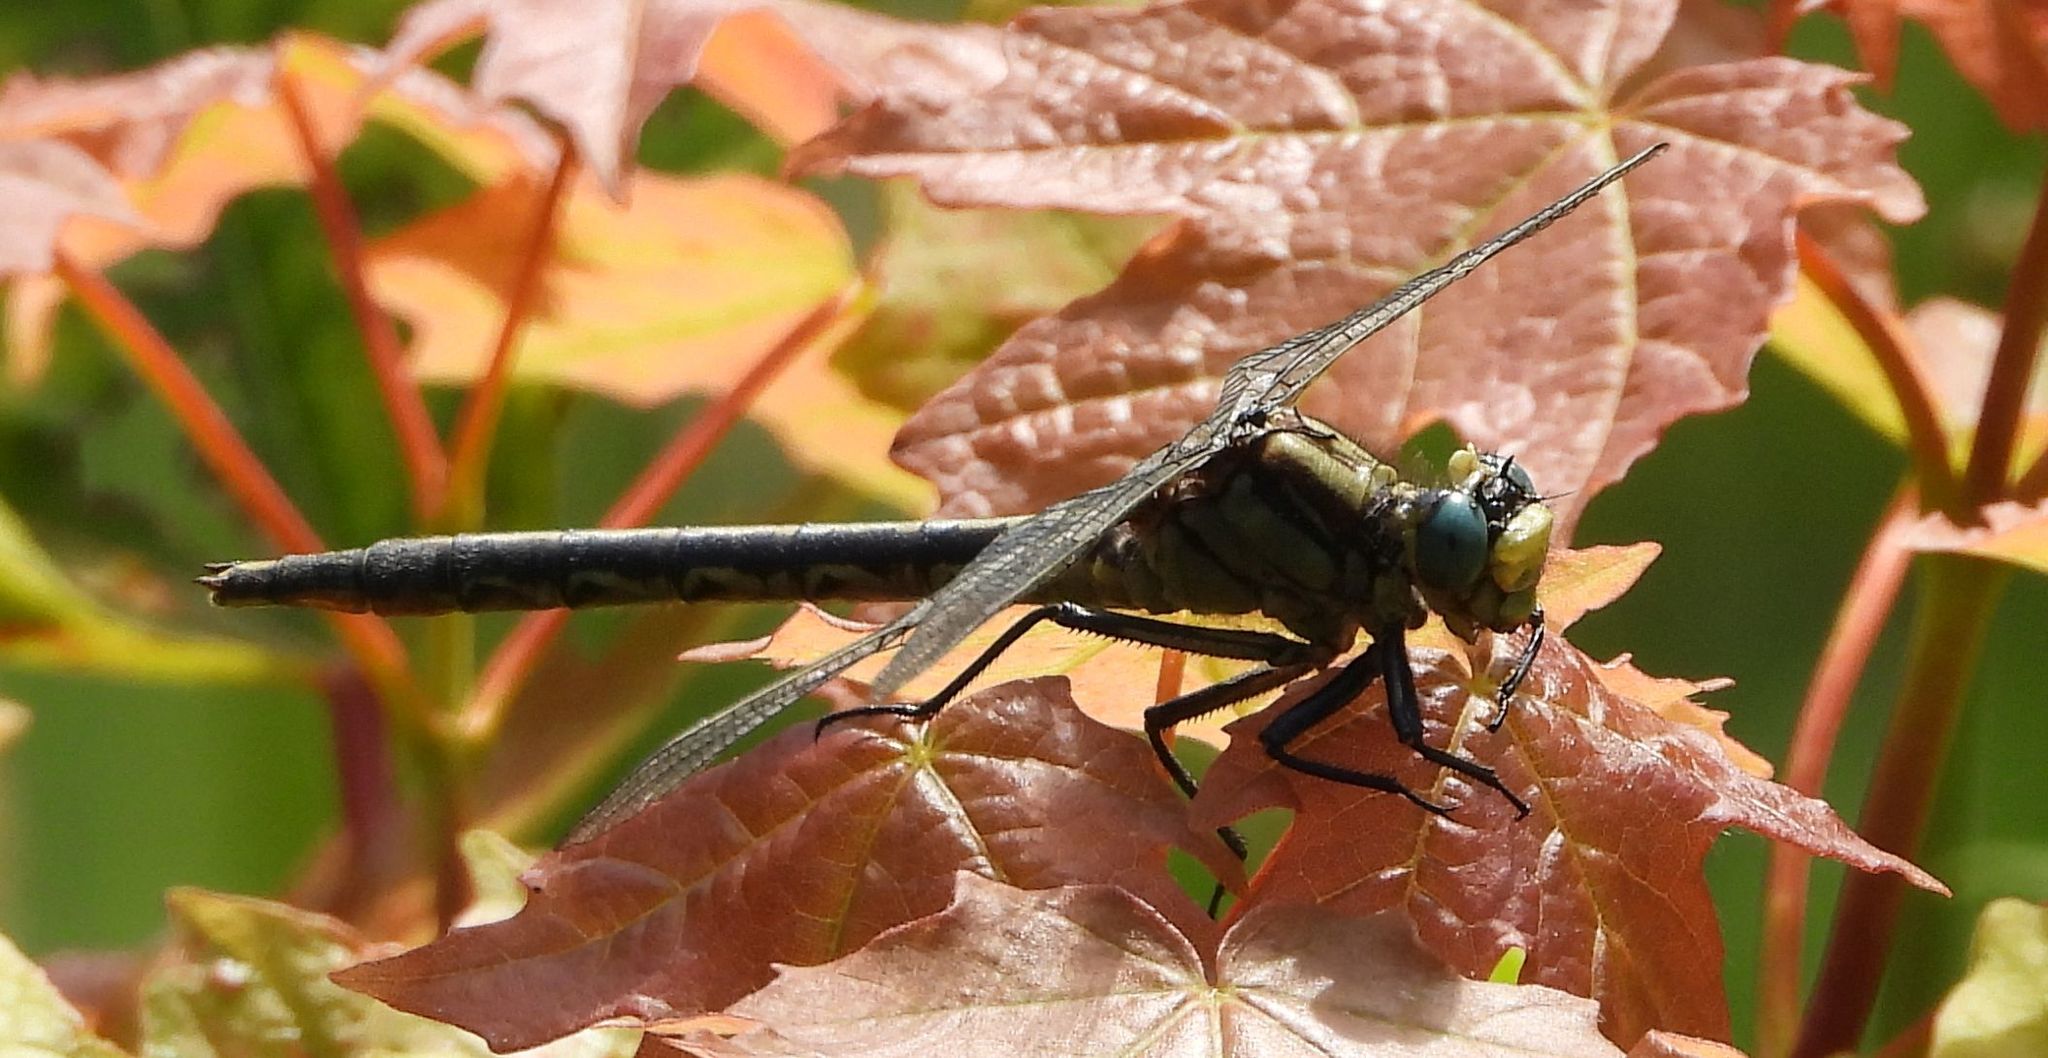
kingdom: Animalia
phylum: Arthropoda
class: Insecta
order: Odonata
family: Gomphidae
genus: Arigomphus
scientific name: Arigomphus cornutus
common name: Horned clubtail
